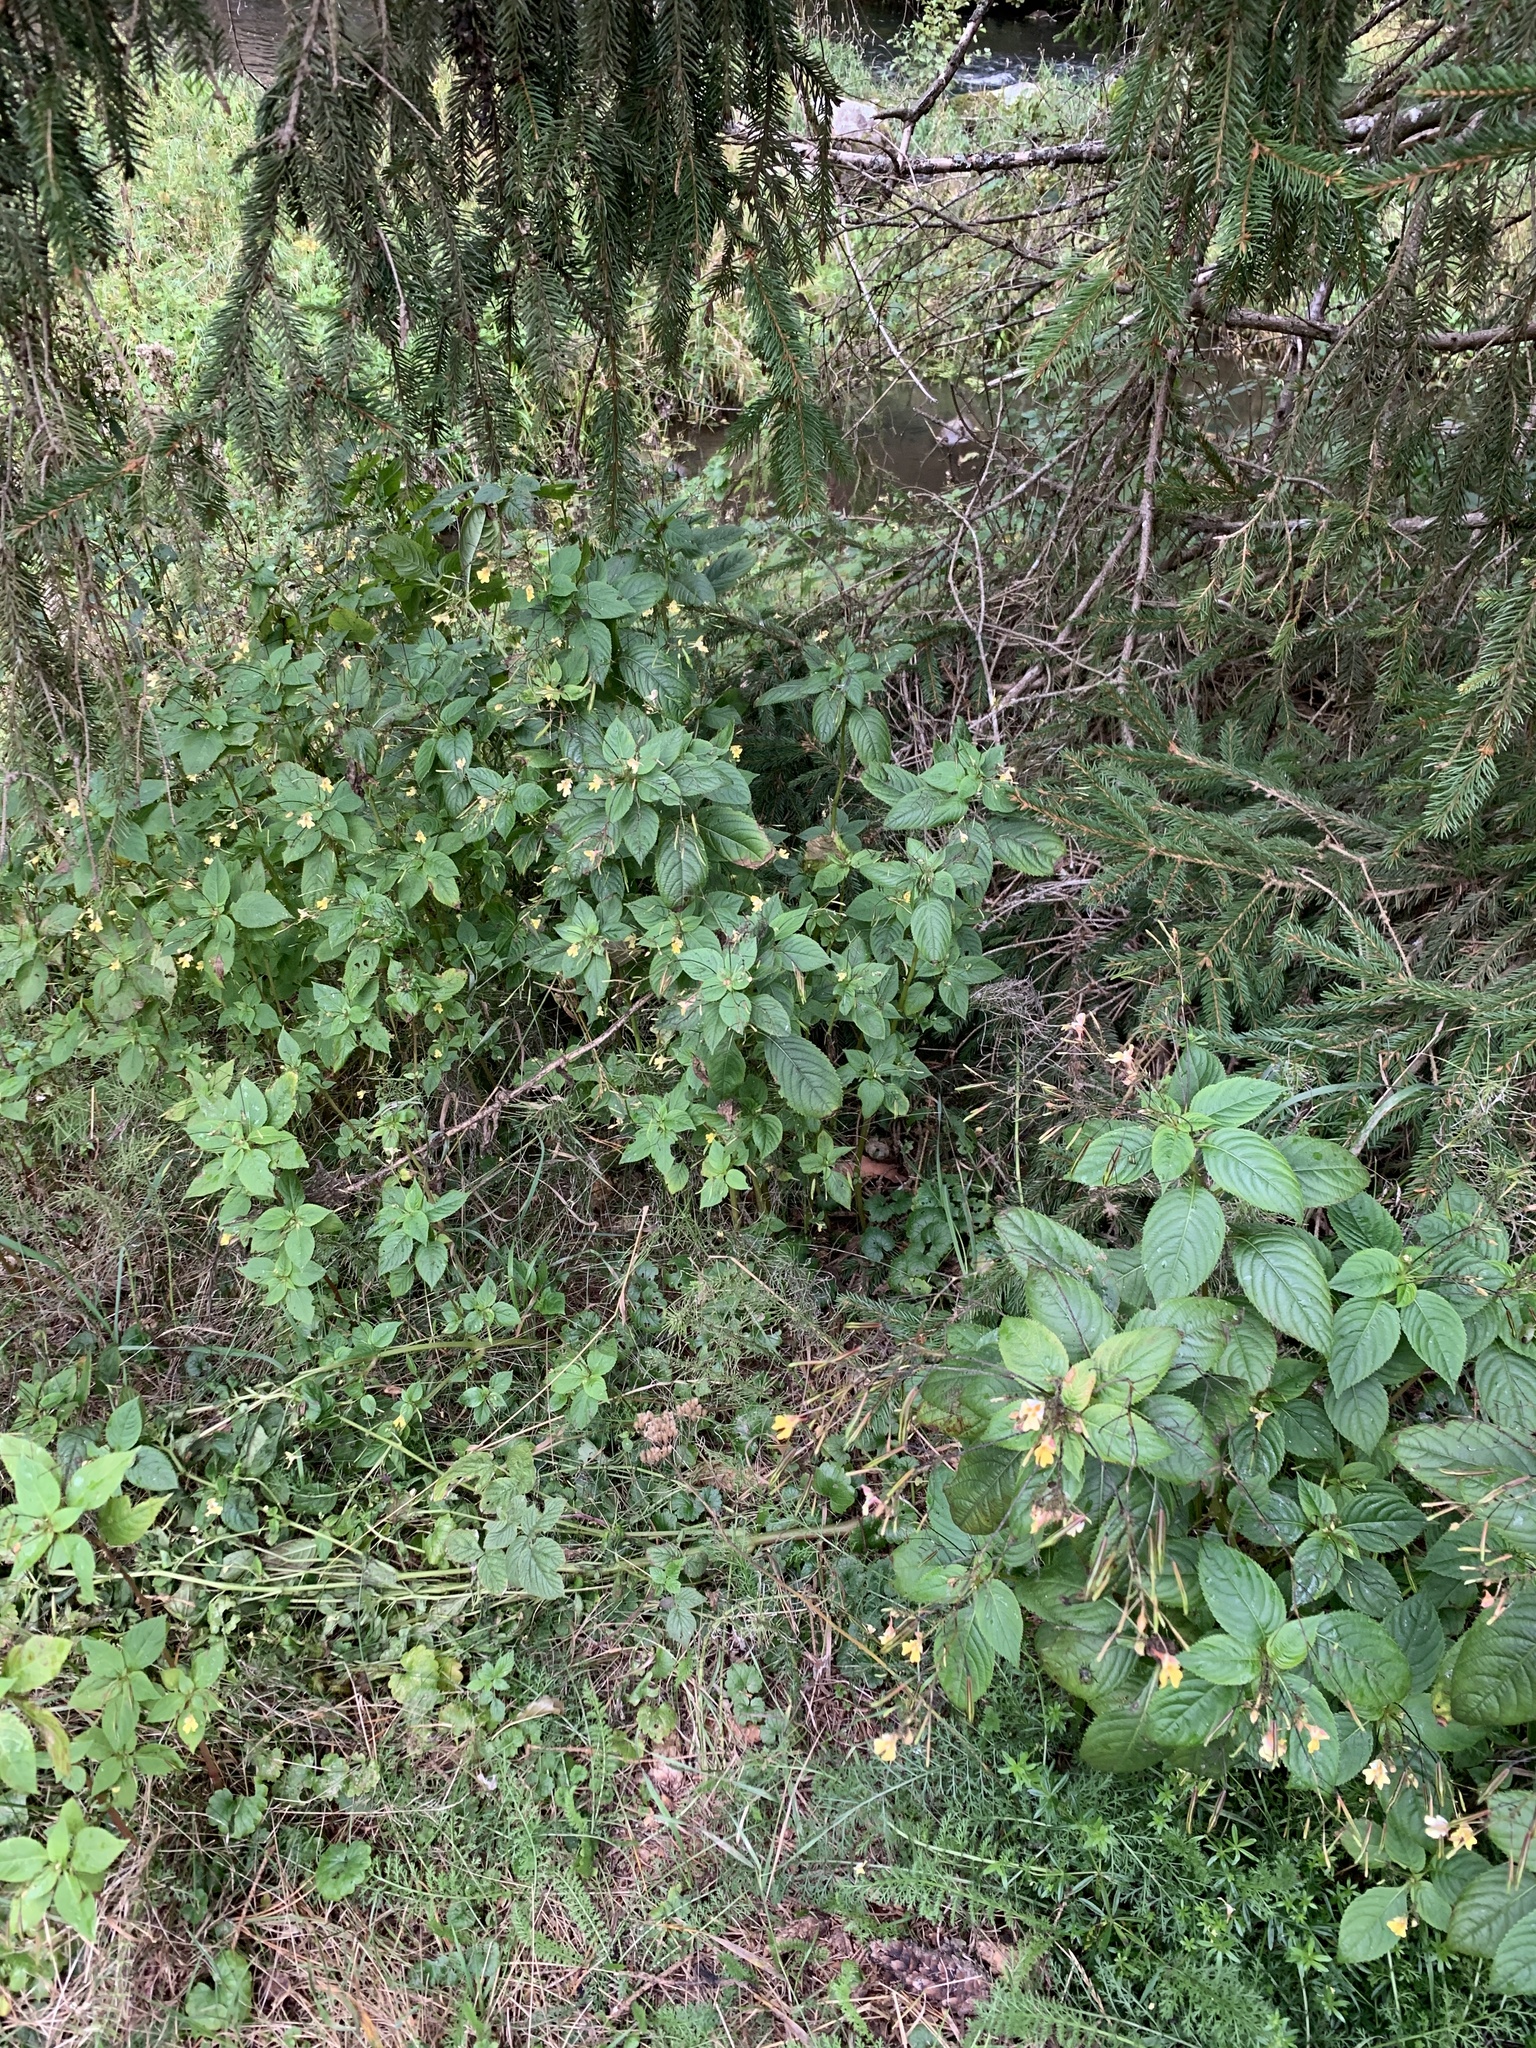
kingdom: Plantae
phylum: Tracheophyta
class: Magnoliopsida
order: Ericales
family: Balsaminaceae
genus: Impatiens
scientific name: Impatiens parviflora
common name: Small balsam
